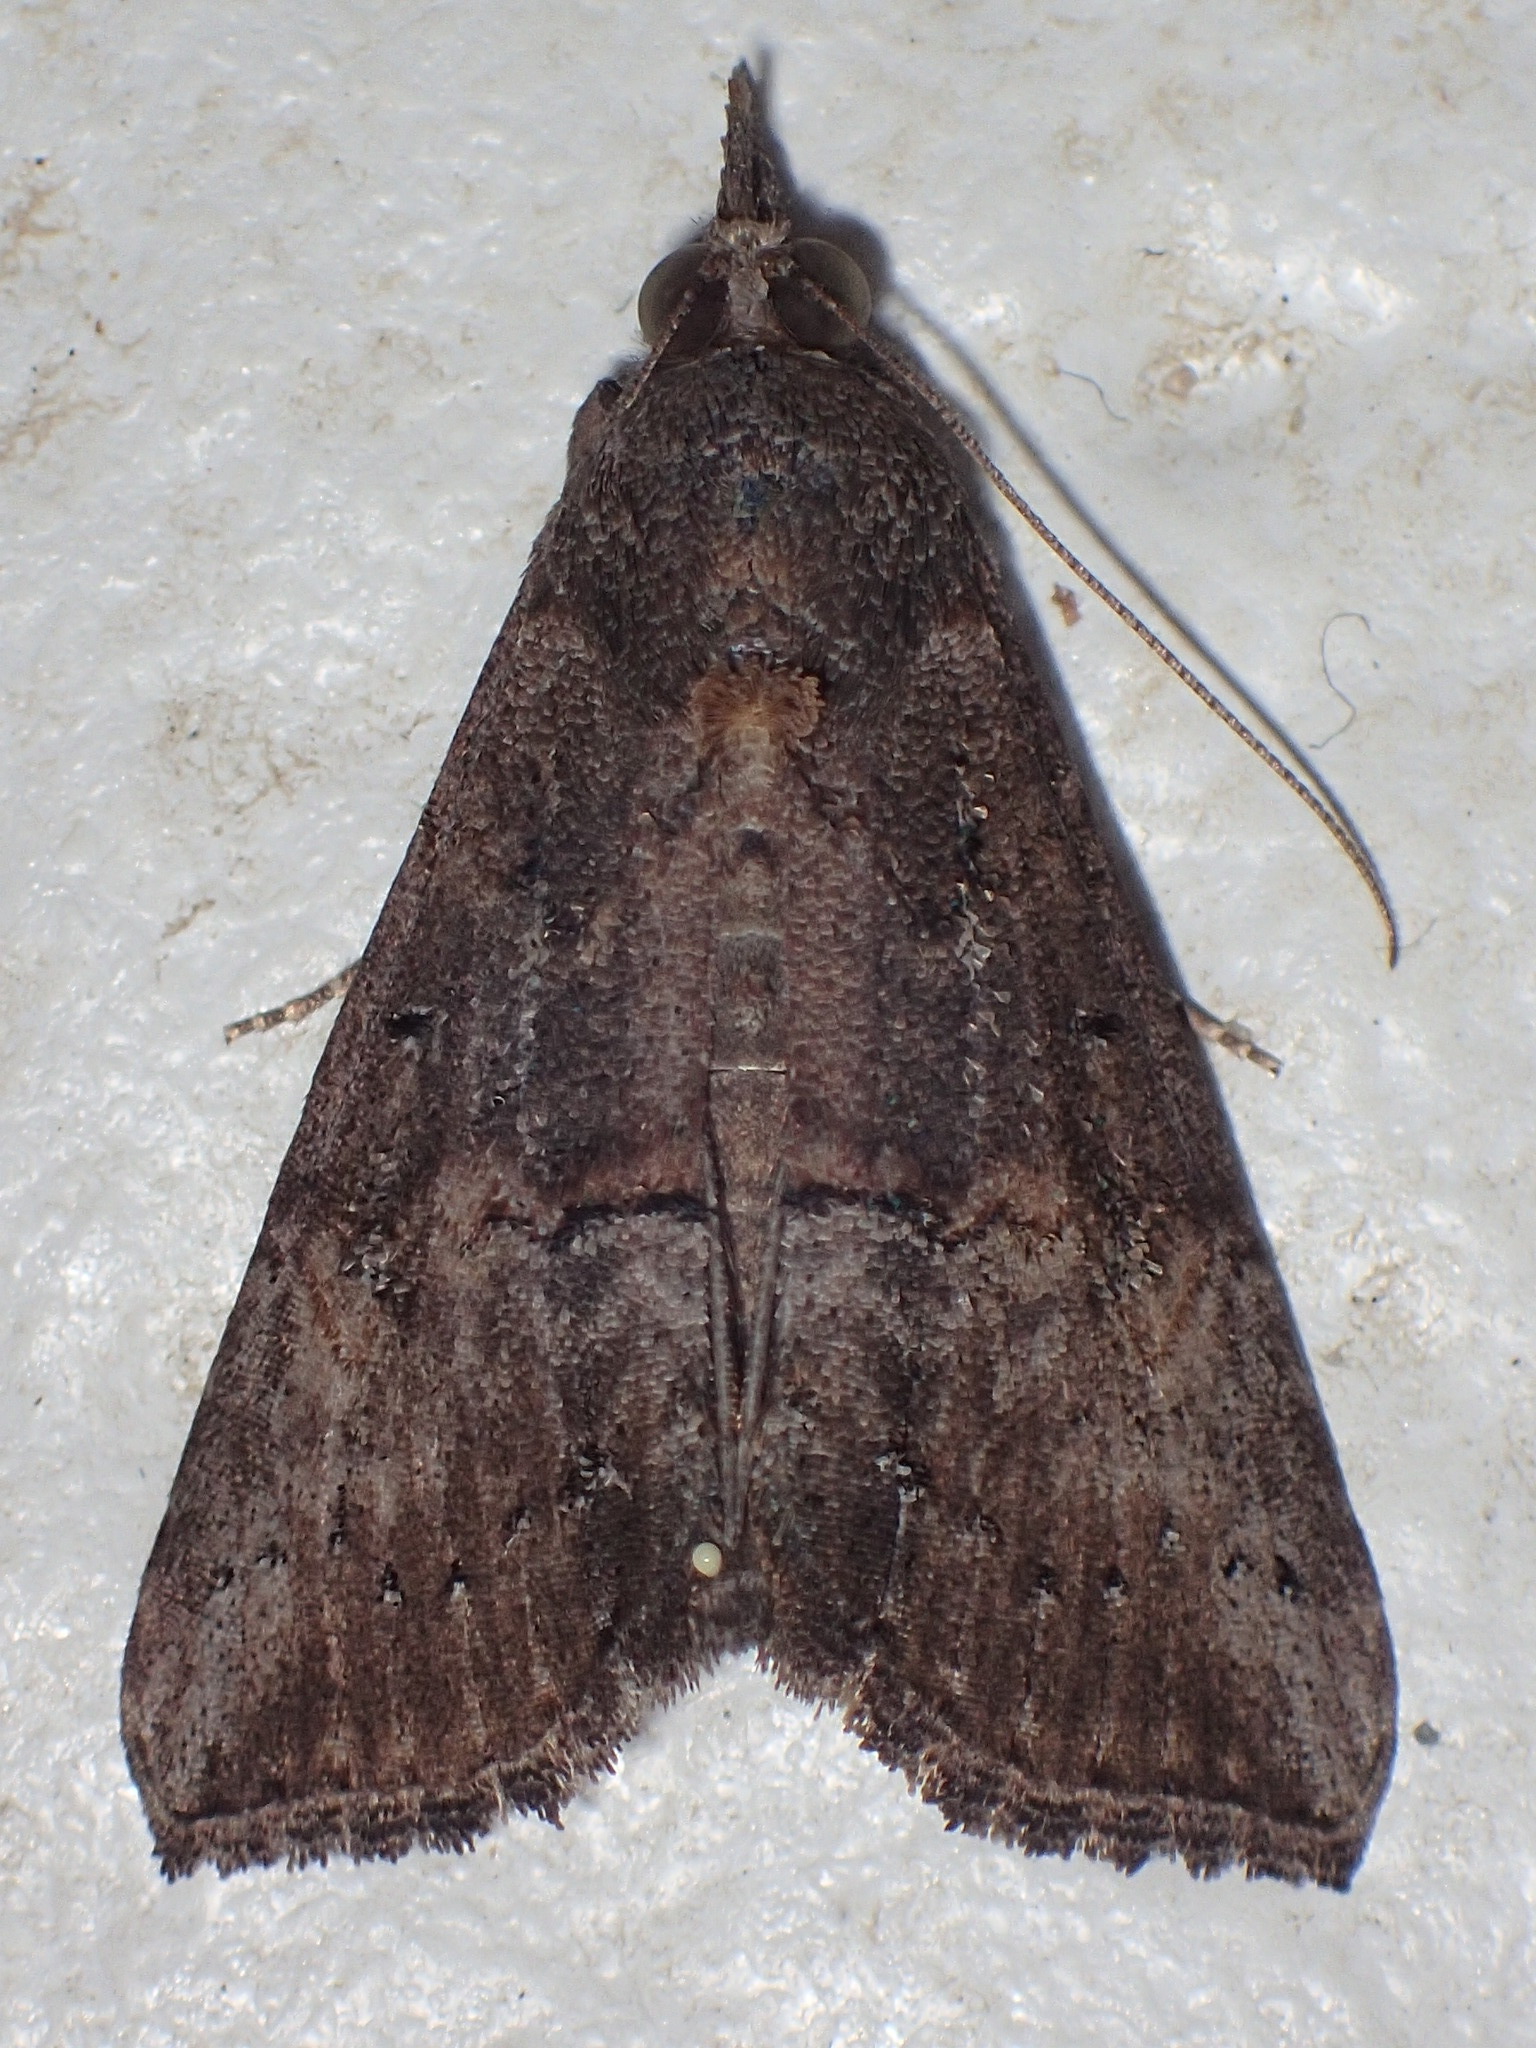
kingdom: Animalia
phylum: Arthropoda
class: Insecta
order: Lepidoptera
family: Erebidae
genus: Hypena
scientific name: Hypena scabra
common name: Green cloverworm
